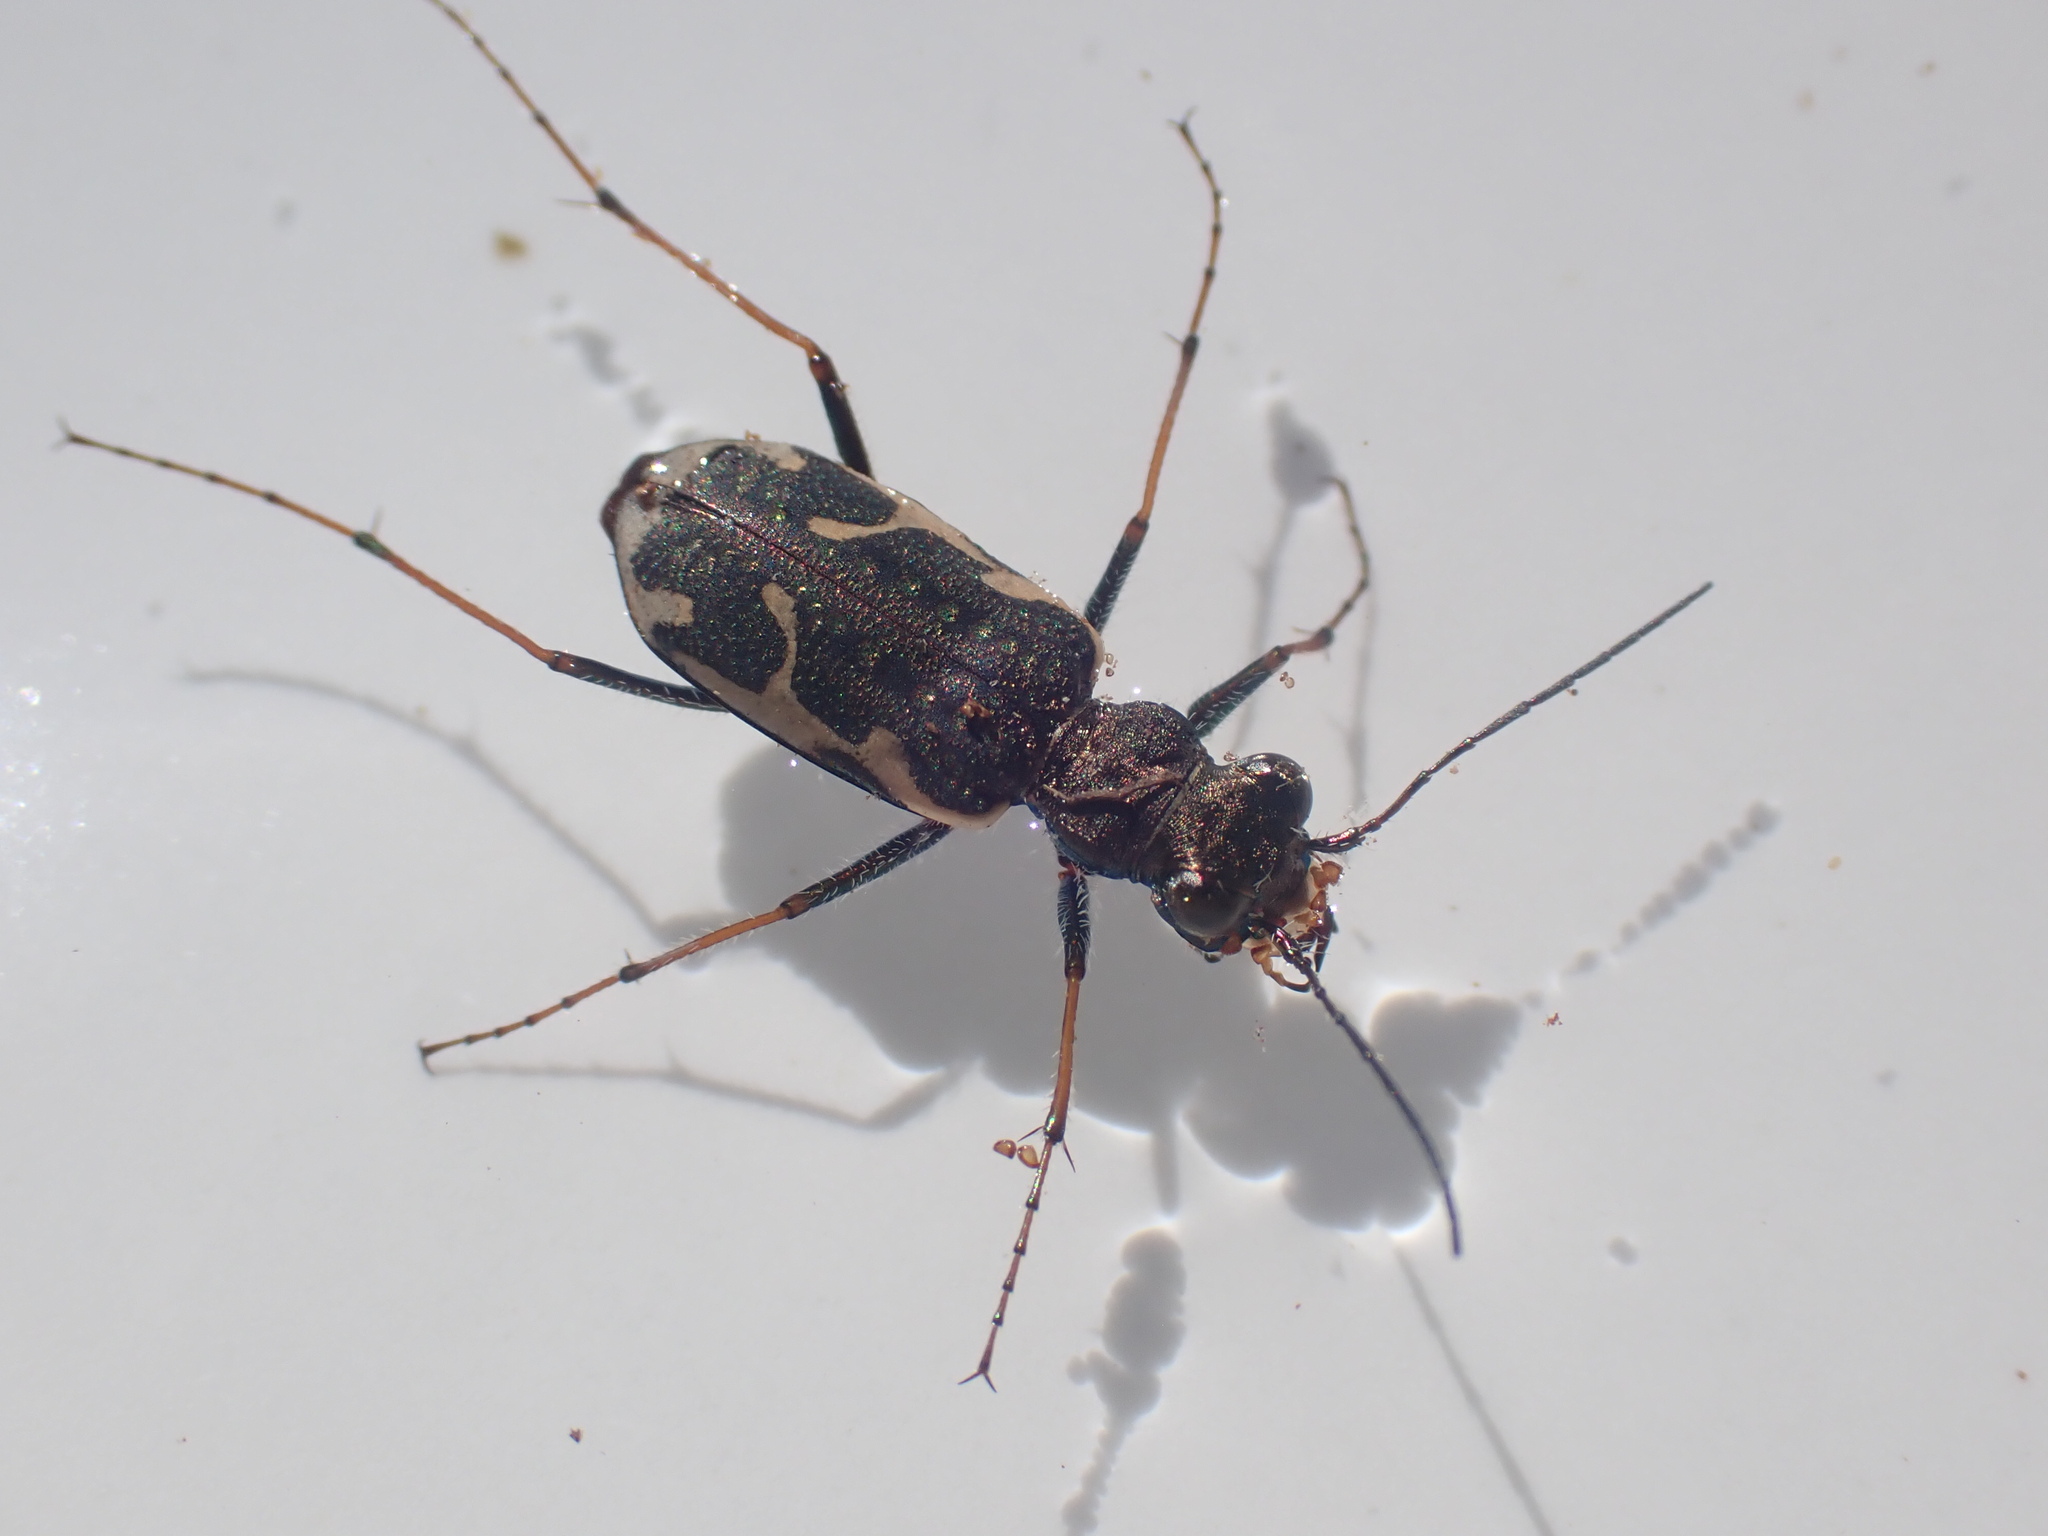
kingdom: Animalia
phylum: Arthropoda
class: Insecta
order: Coleoptera
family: Carabidae
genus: Neocicindela
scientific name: Neocicindela tuberculata
